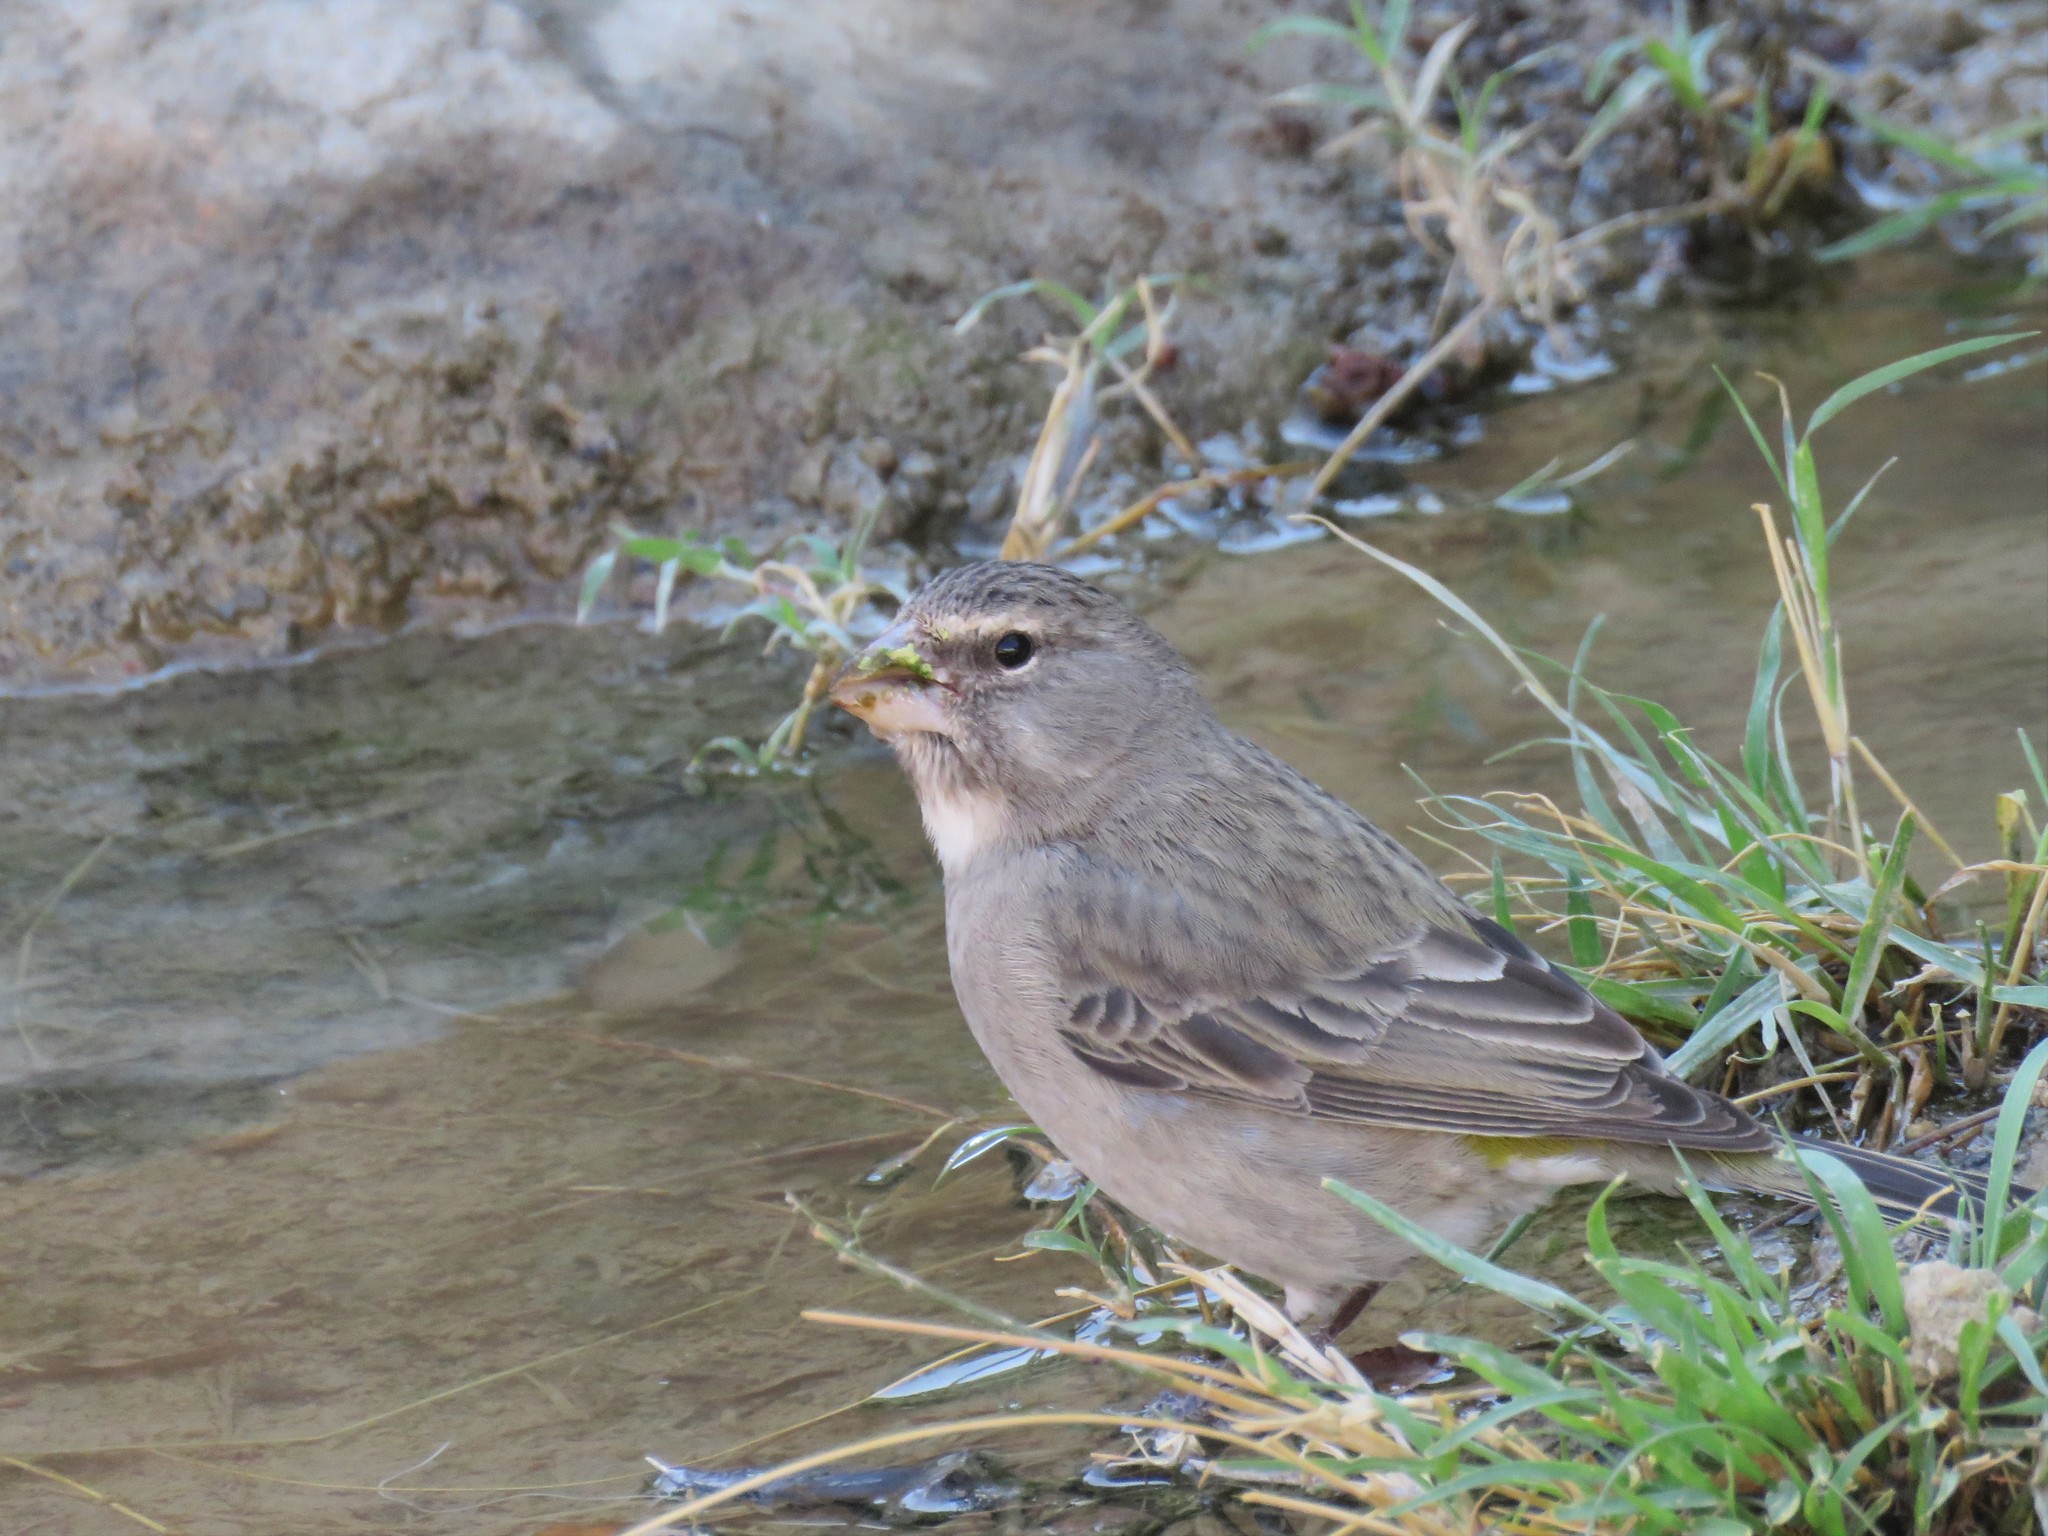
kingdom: Animalia
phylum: Chordata
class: Aves
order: Passeriformes
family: Fringillidae
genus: Crithagra
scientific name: Crithagra albogularis
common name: White-throated canary
